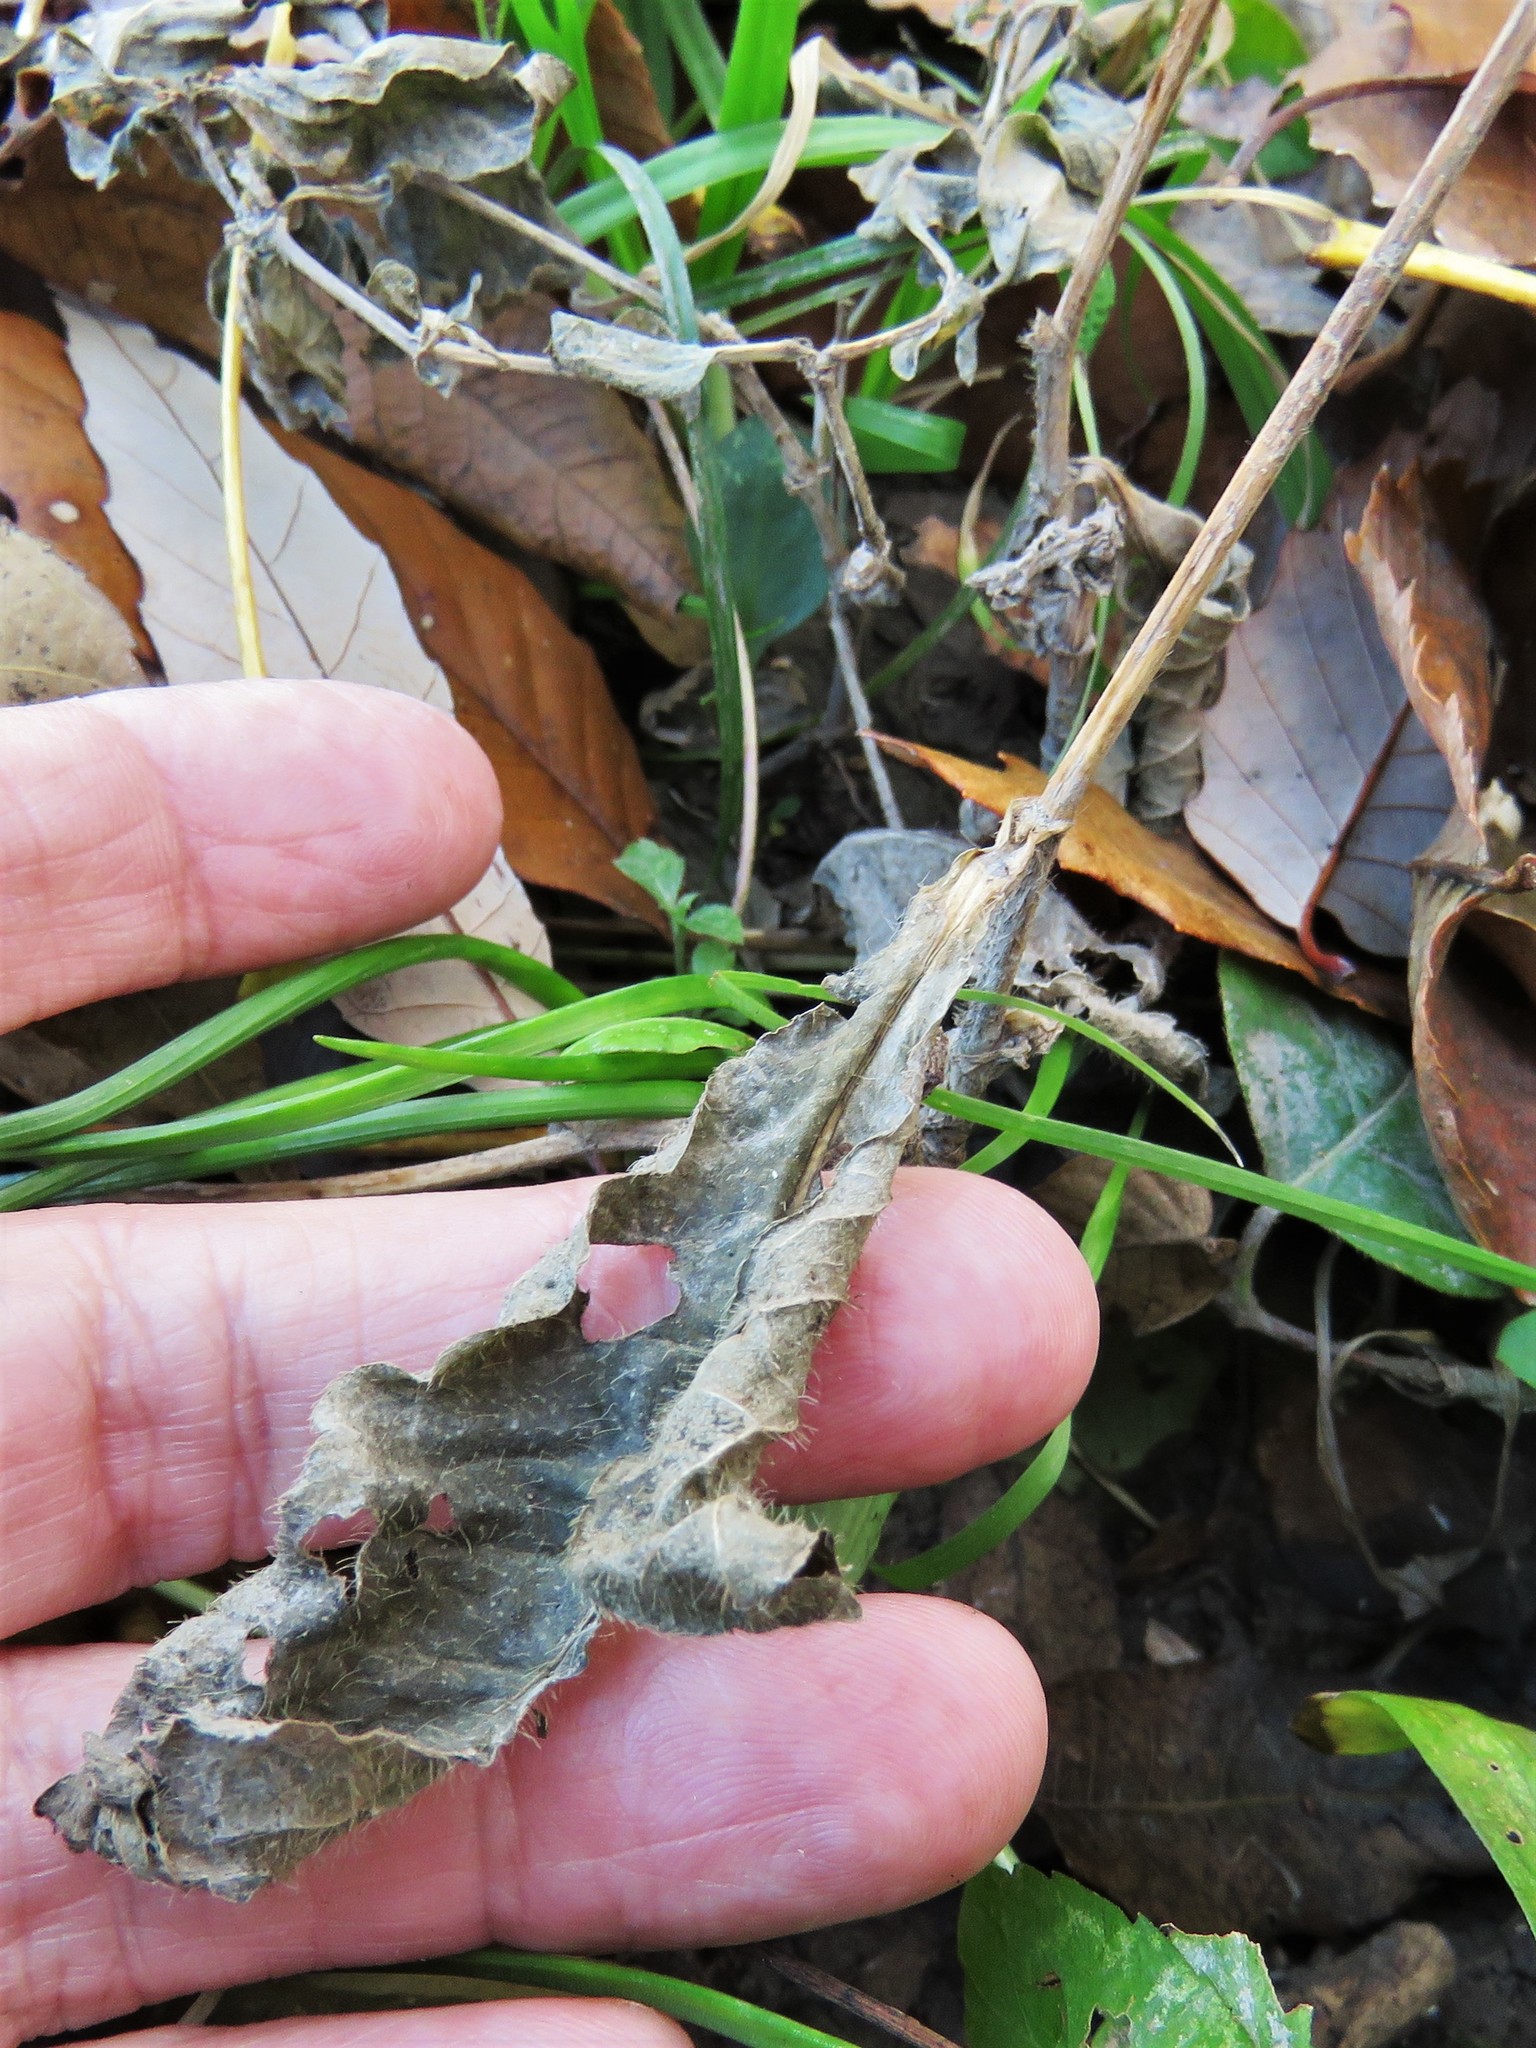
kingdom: Plantae
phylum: Tracheophyta
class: Magnoliopsida
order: Asterales
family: Asteraceae
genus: Elephantopus
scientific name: Elephantopus carolinianus
